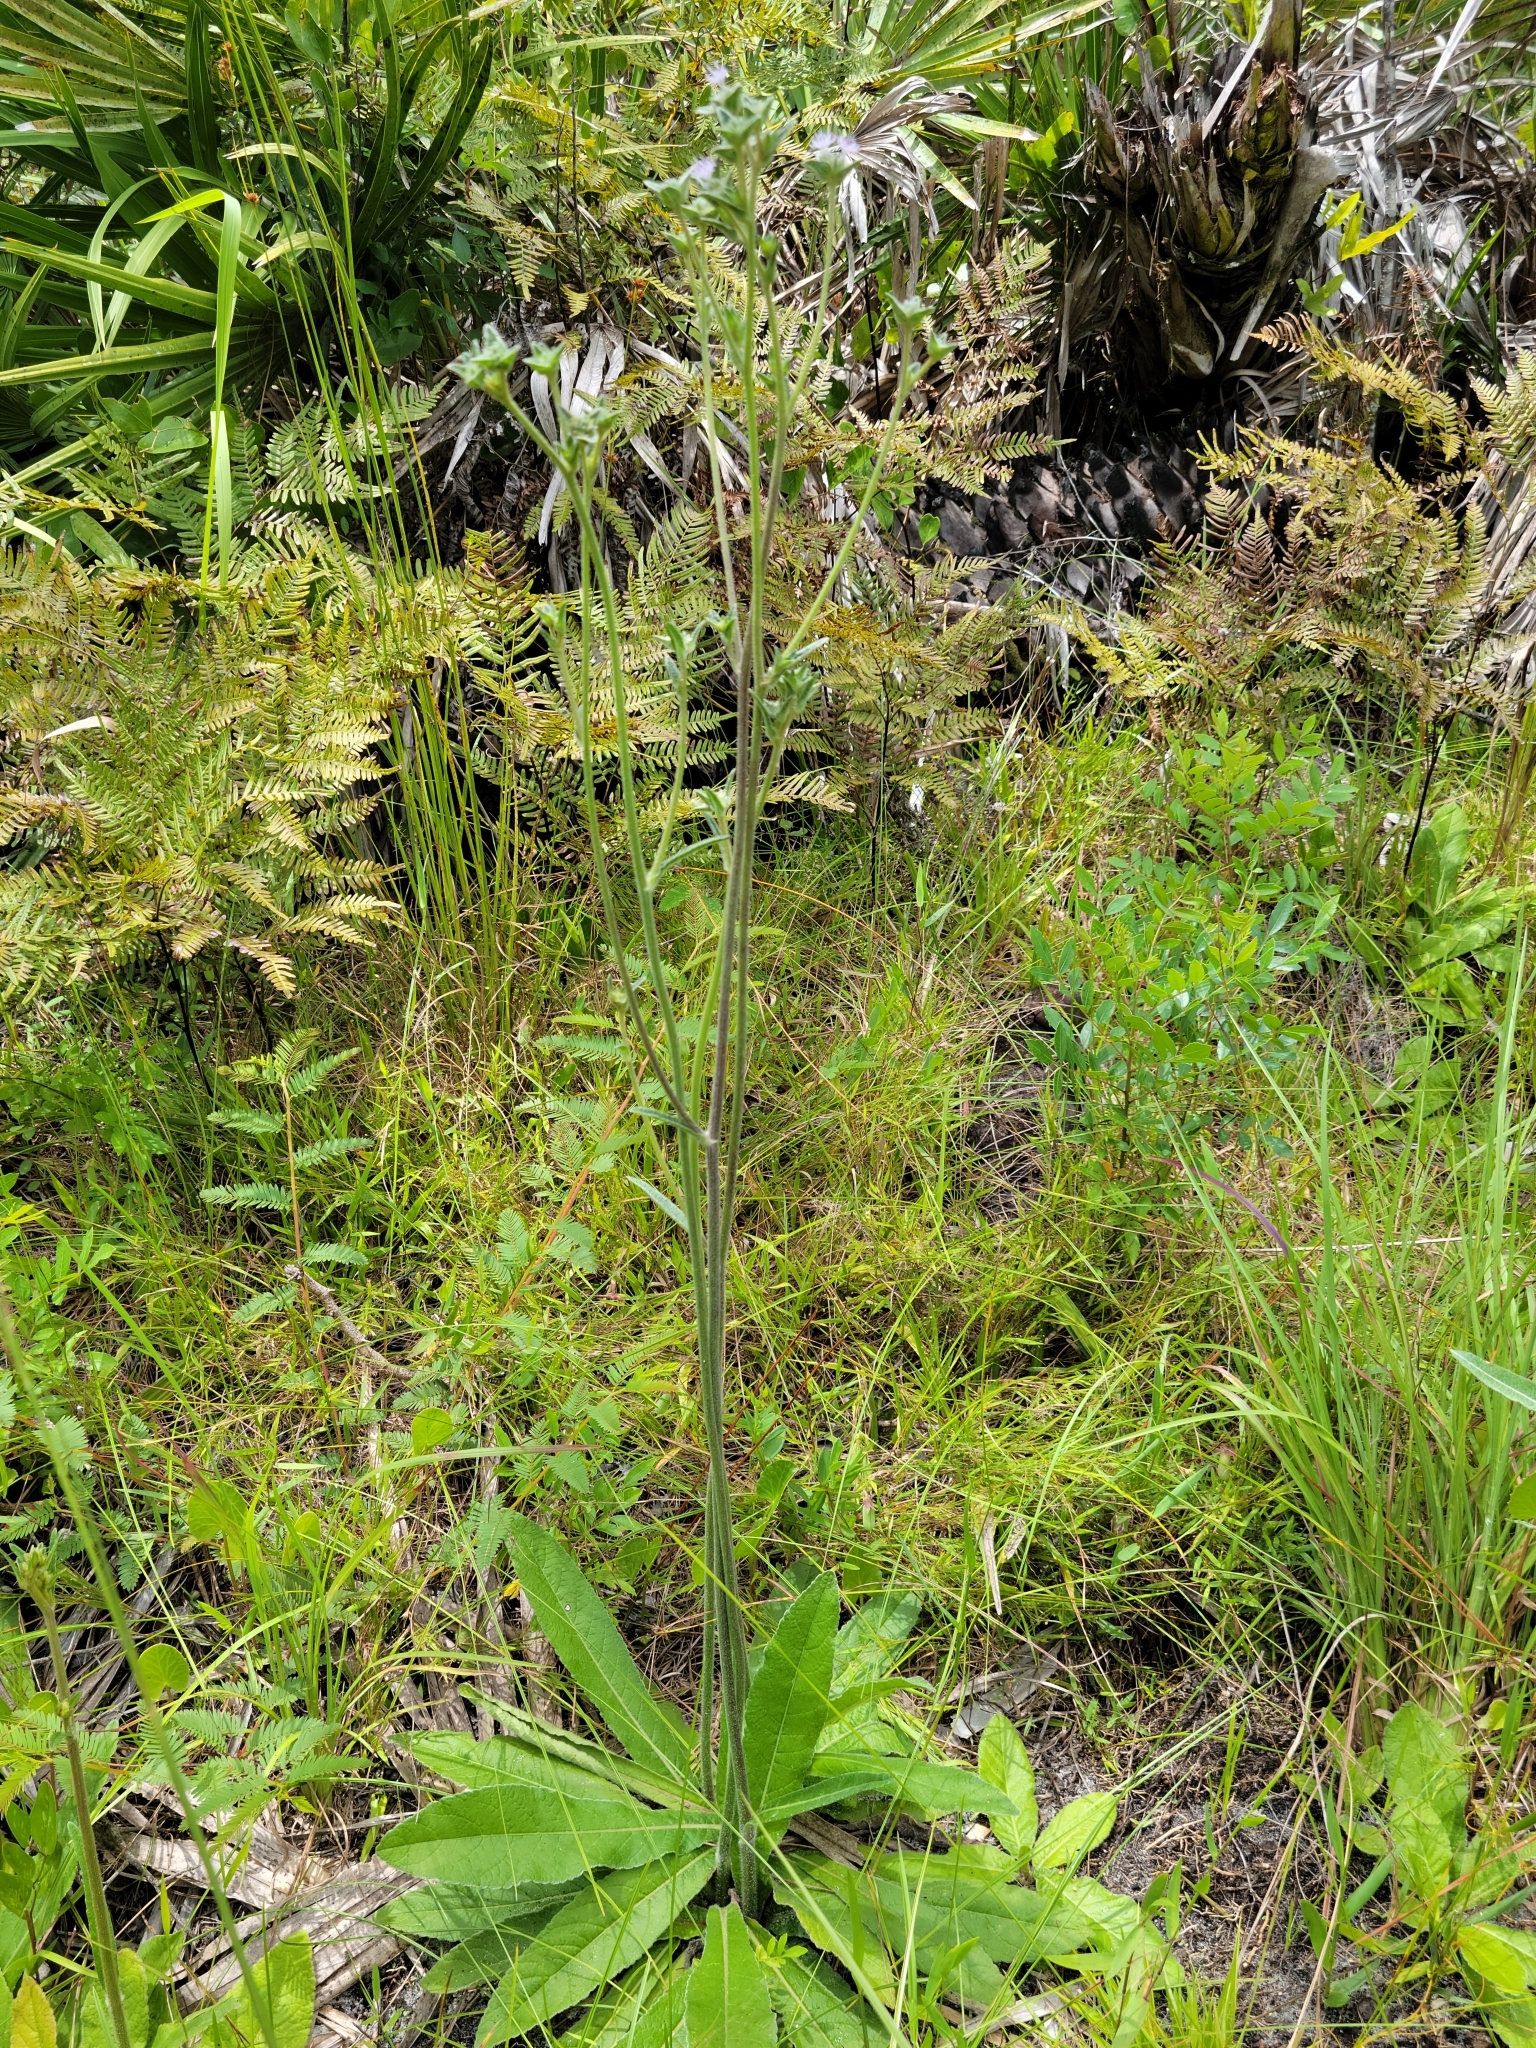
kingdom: Plantae
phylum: Tracheophyta
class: Magnoliopsida
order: Asterales
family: Asteraceae
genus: Elephantopus
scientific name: Elephantopus elatus
